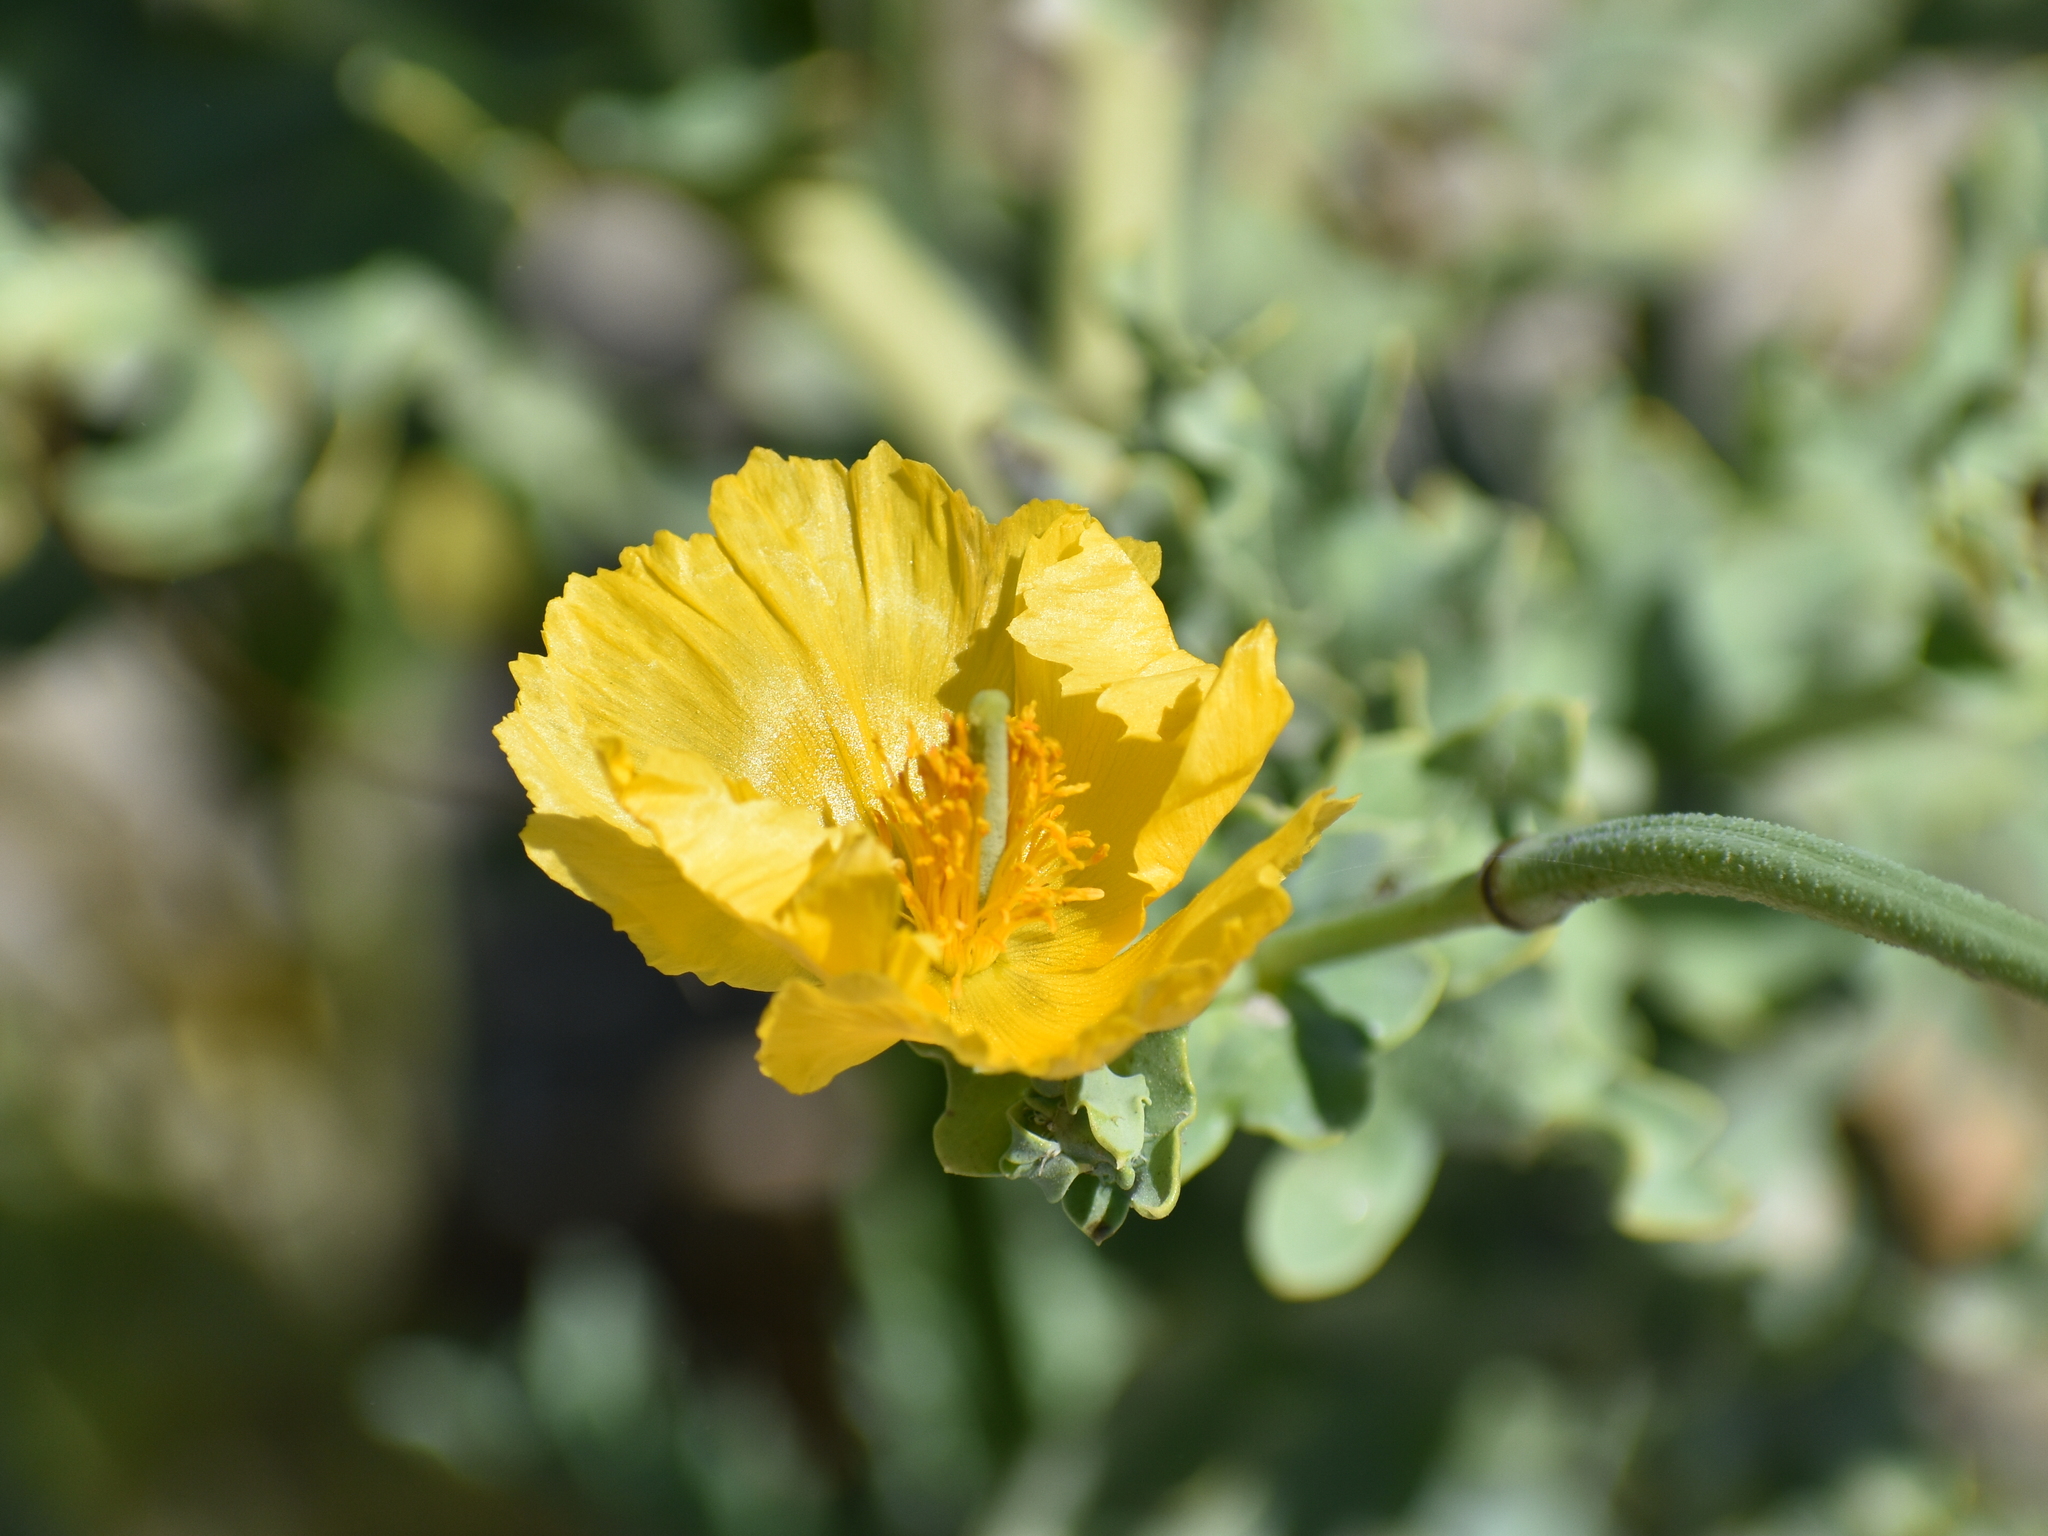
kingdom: Plantae
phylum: Tracheophyta
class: Magnoliopsida
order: Ranunculales
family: Papaveraceae
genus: Glaucium
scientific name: Glaucium flavum
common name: Yellow horned-poppy
